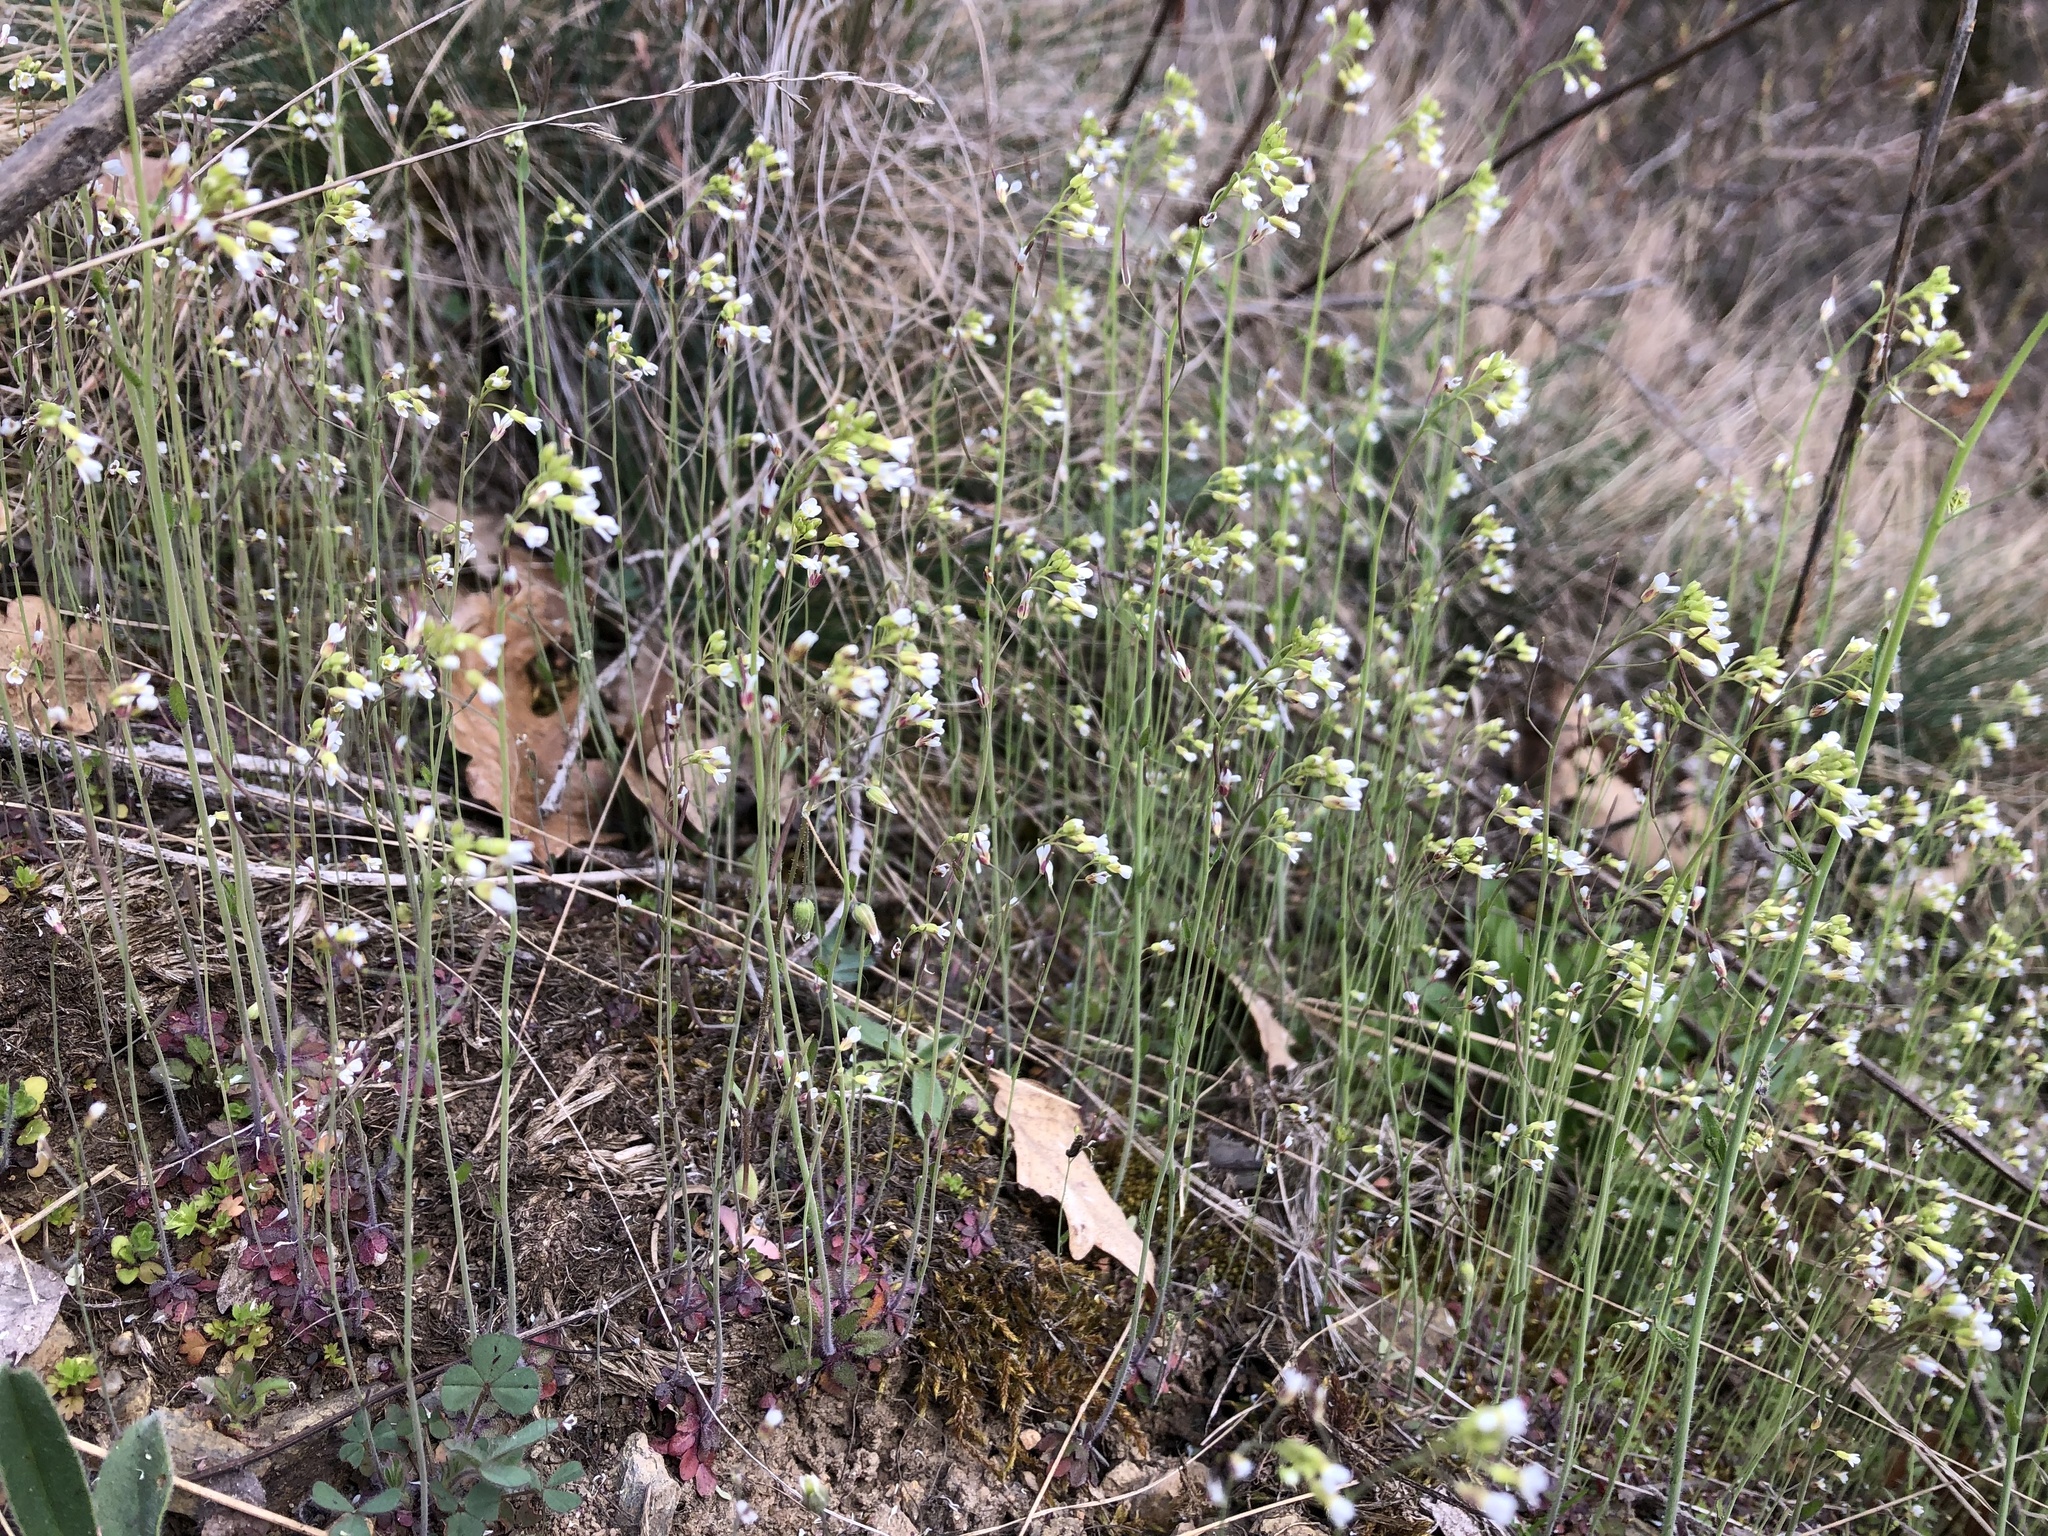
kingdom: Plantae
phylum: Tracheophyta
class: Magnoliopsida
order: Brassicales
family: Brassicaceae
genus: Arabidopsis
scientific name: Arabidopsis thaliana
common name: Thale cress
